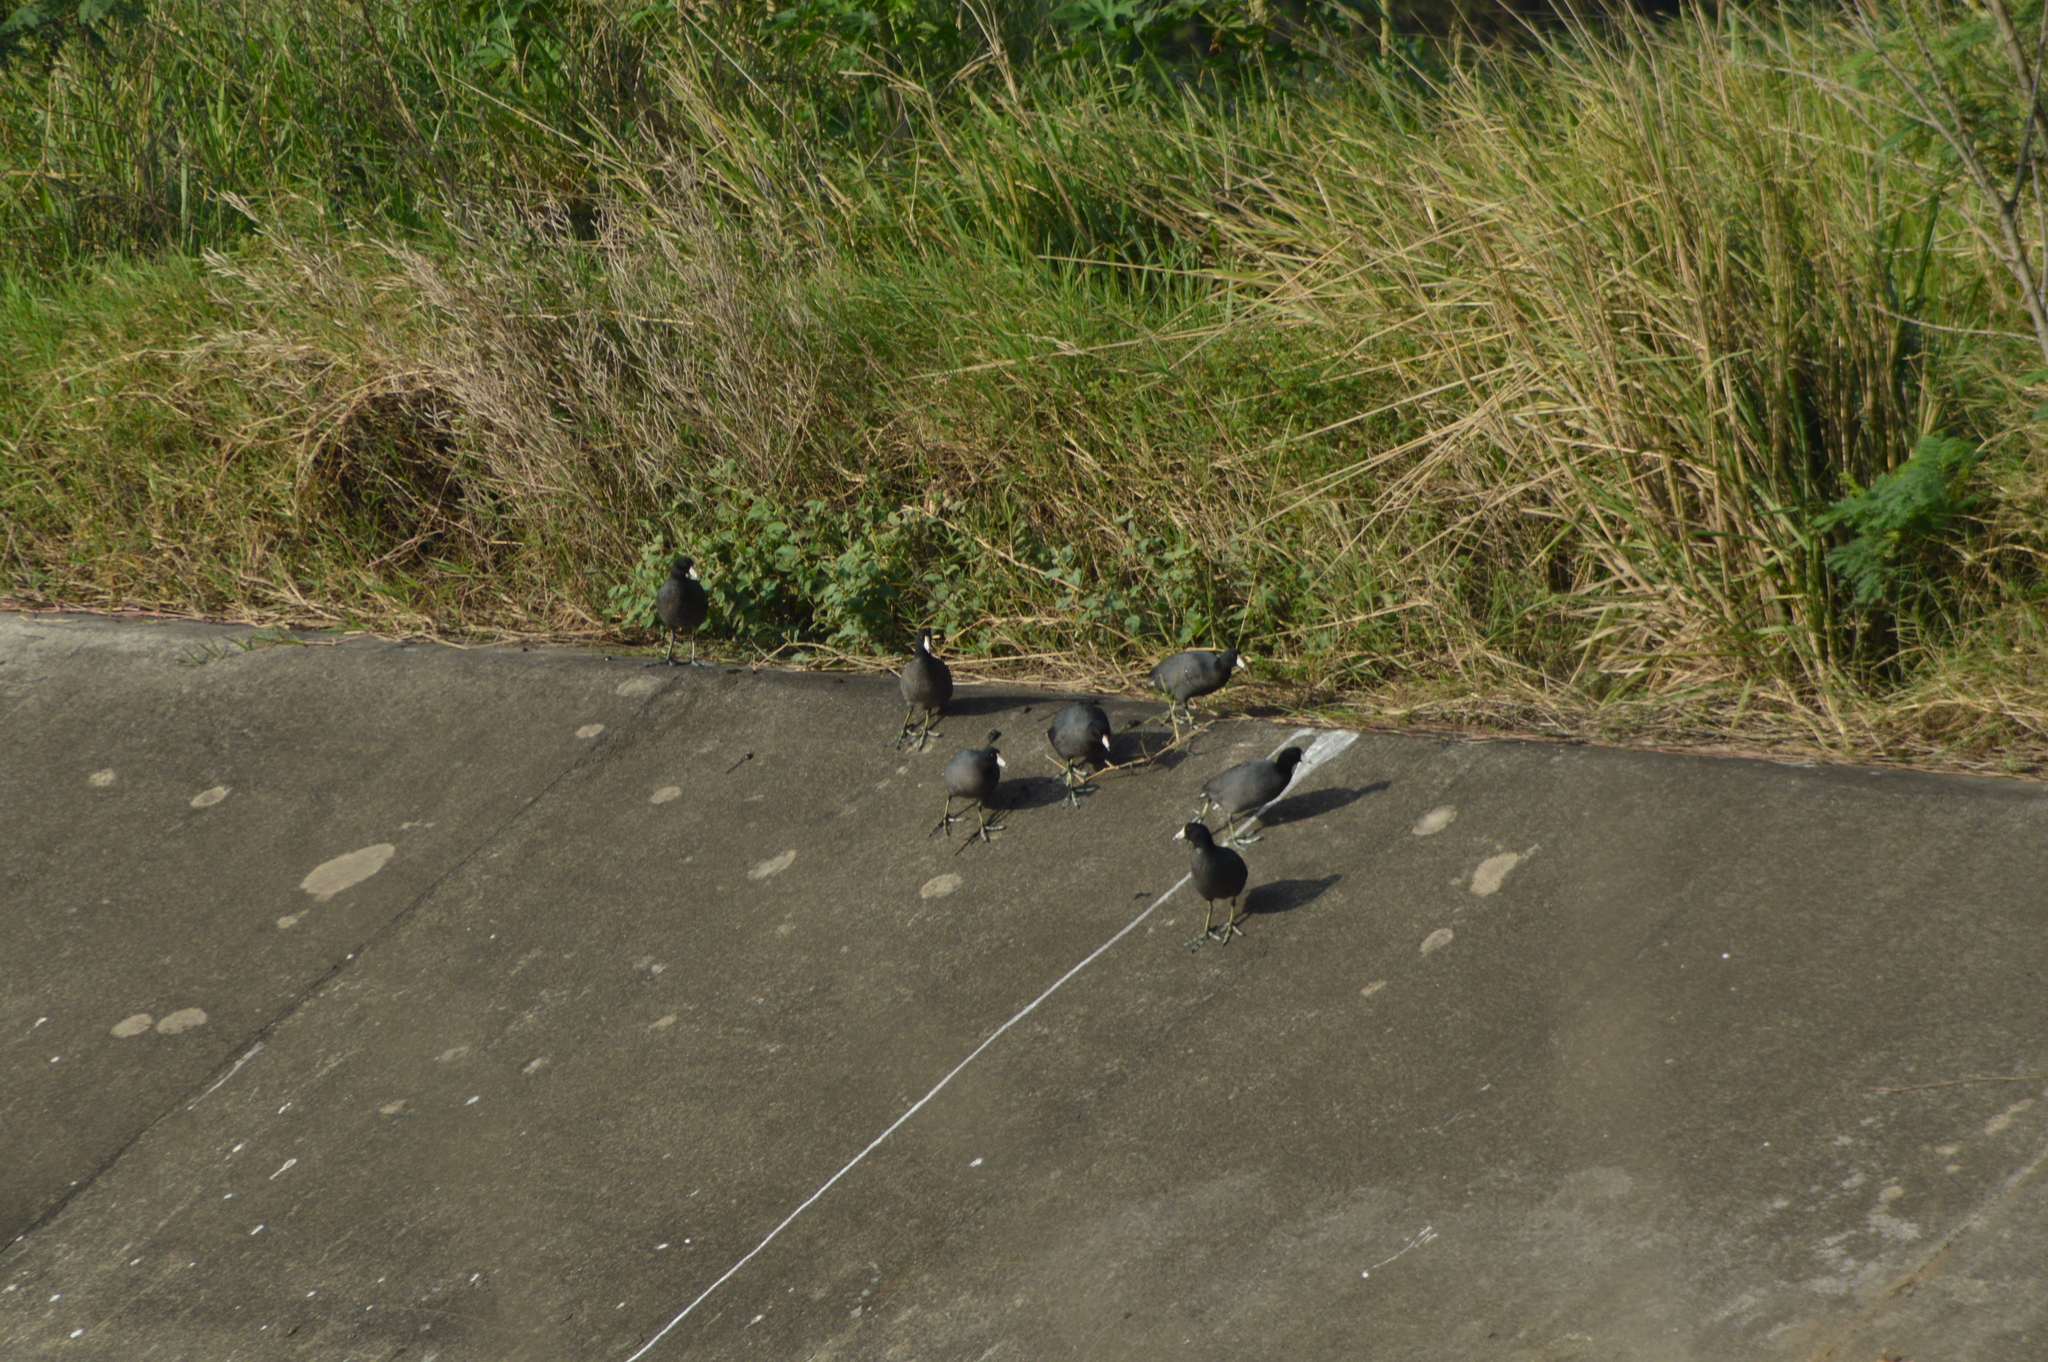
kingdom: Animalia
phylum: Chordata
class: Aves
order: Gruiformes
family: Rallidae
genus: Fulica
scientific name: Fulica americana
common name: American coot
